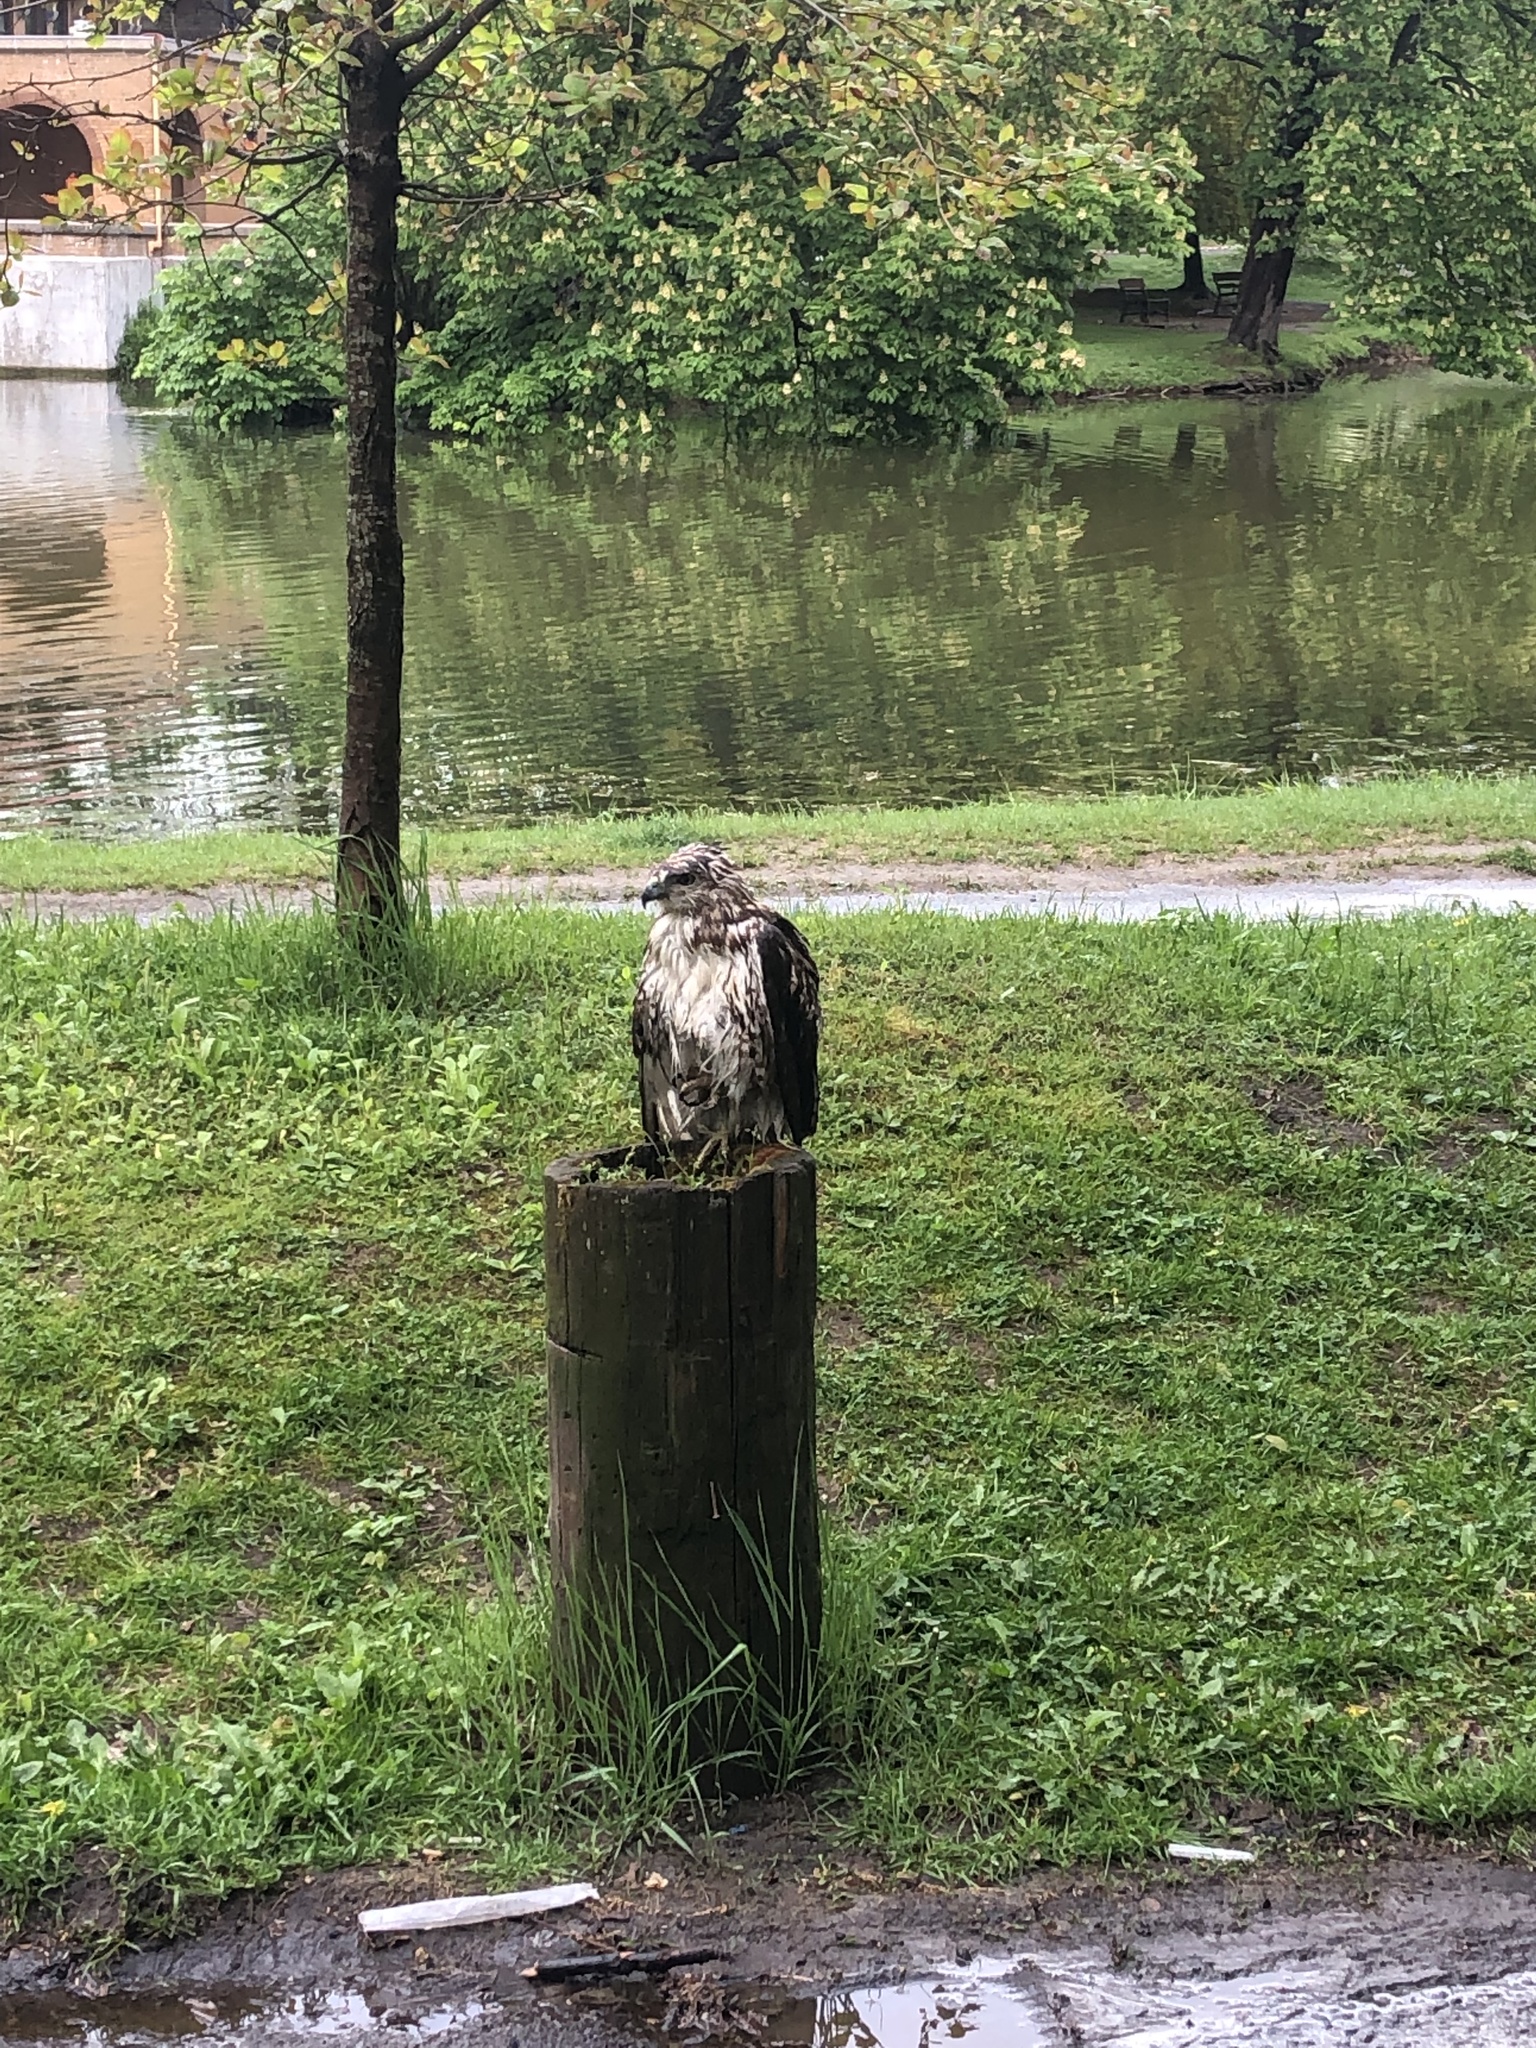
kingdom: Animalia
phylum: Chordata
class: Aves
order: Accipitriformes
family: Accipitridae
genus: Buteo
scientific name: Buteo jamaicensis
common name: Red-tailed hawk
